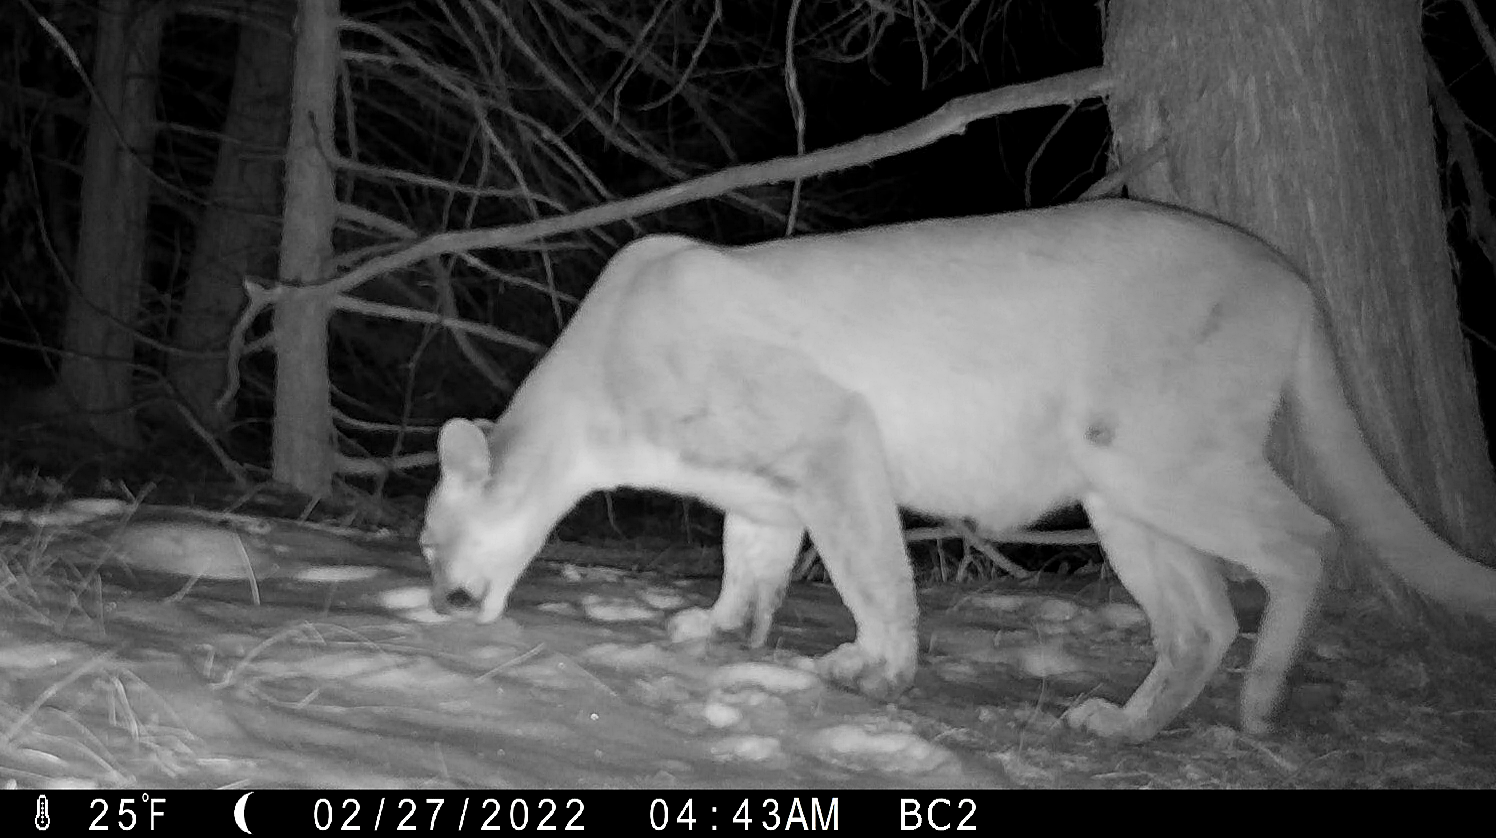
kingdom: Animalia
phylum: Chordata
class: Mammalia
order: Carnivora
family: Felidae
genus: Puma
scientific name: Puma concolor
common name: Puma
